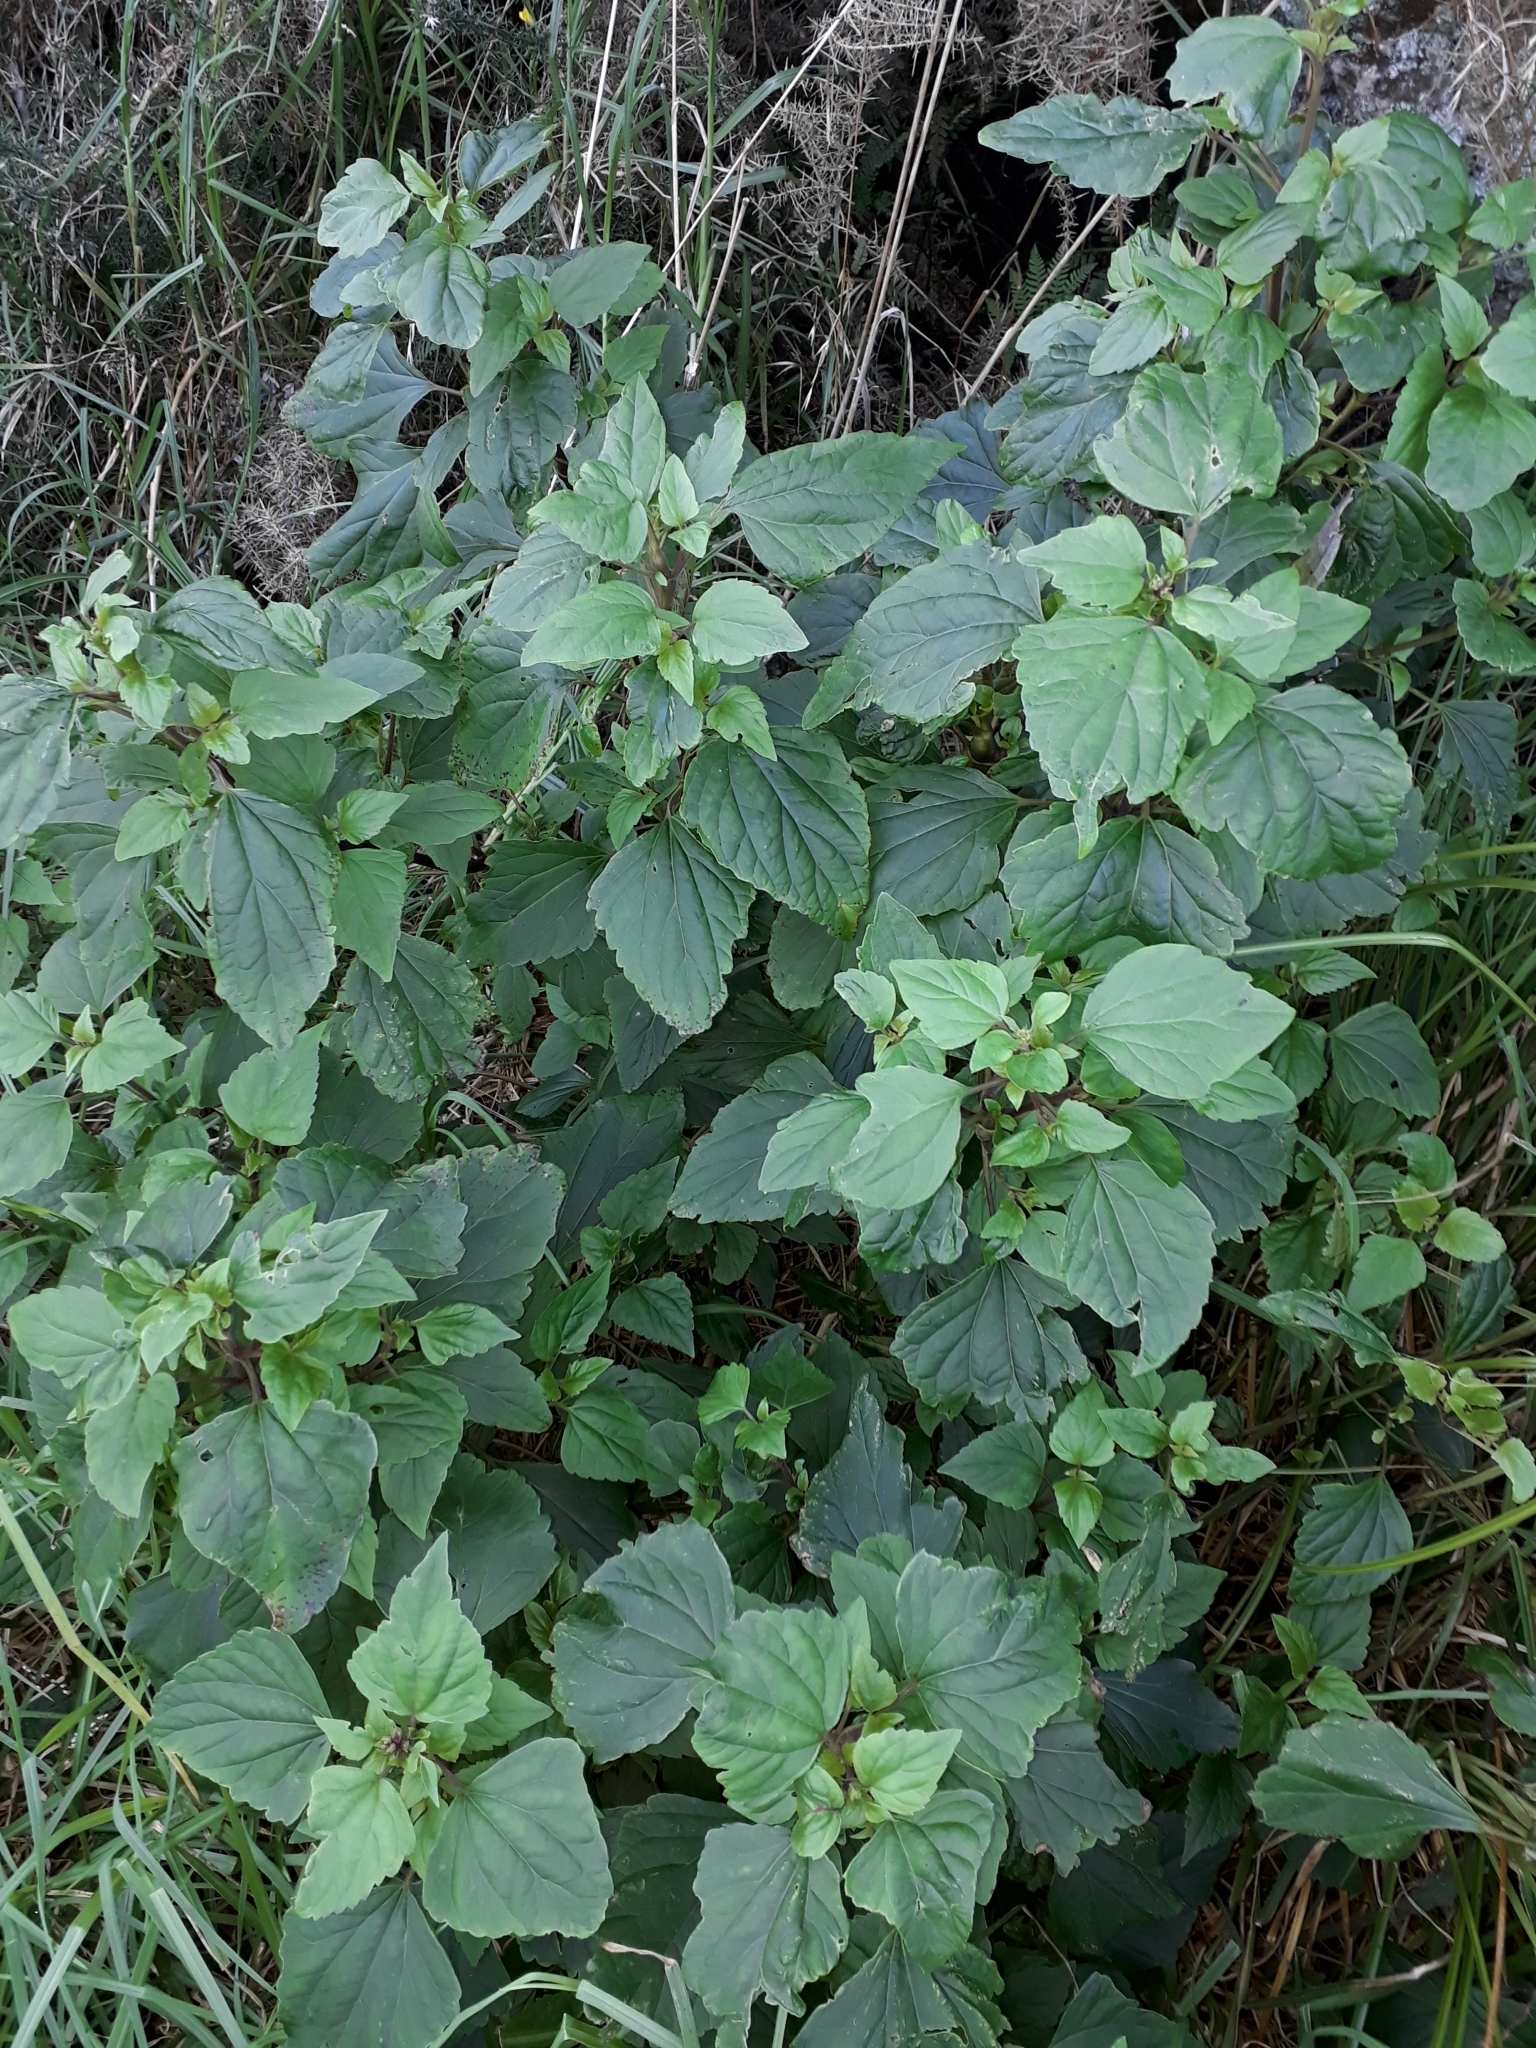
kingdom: Plantae
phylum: Tracheophyta
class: Magnoliopsida
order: Asterales
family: Asteraceae
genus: Ageratina
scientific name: Ageratina adenophora
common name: Sticky snakeroot
